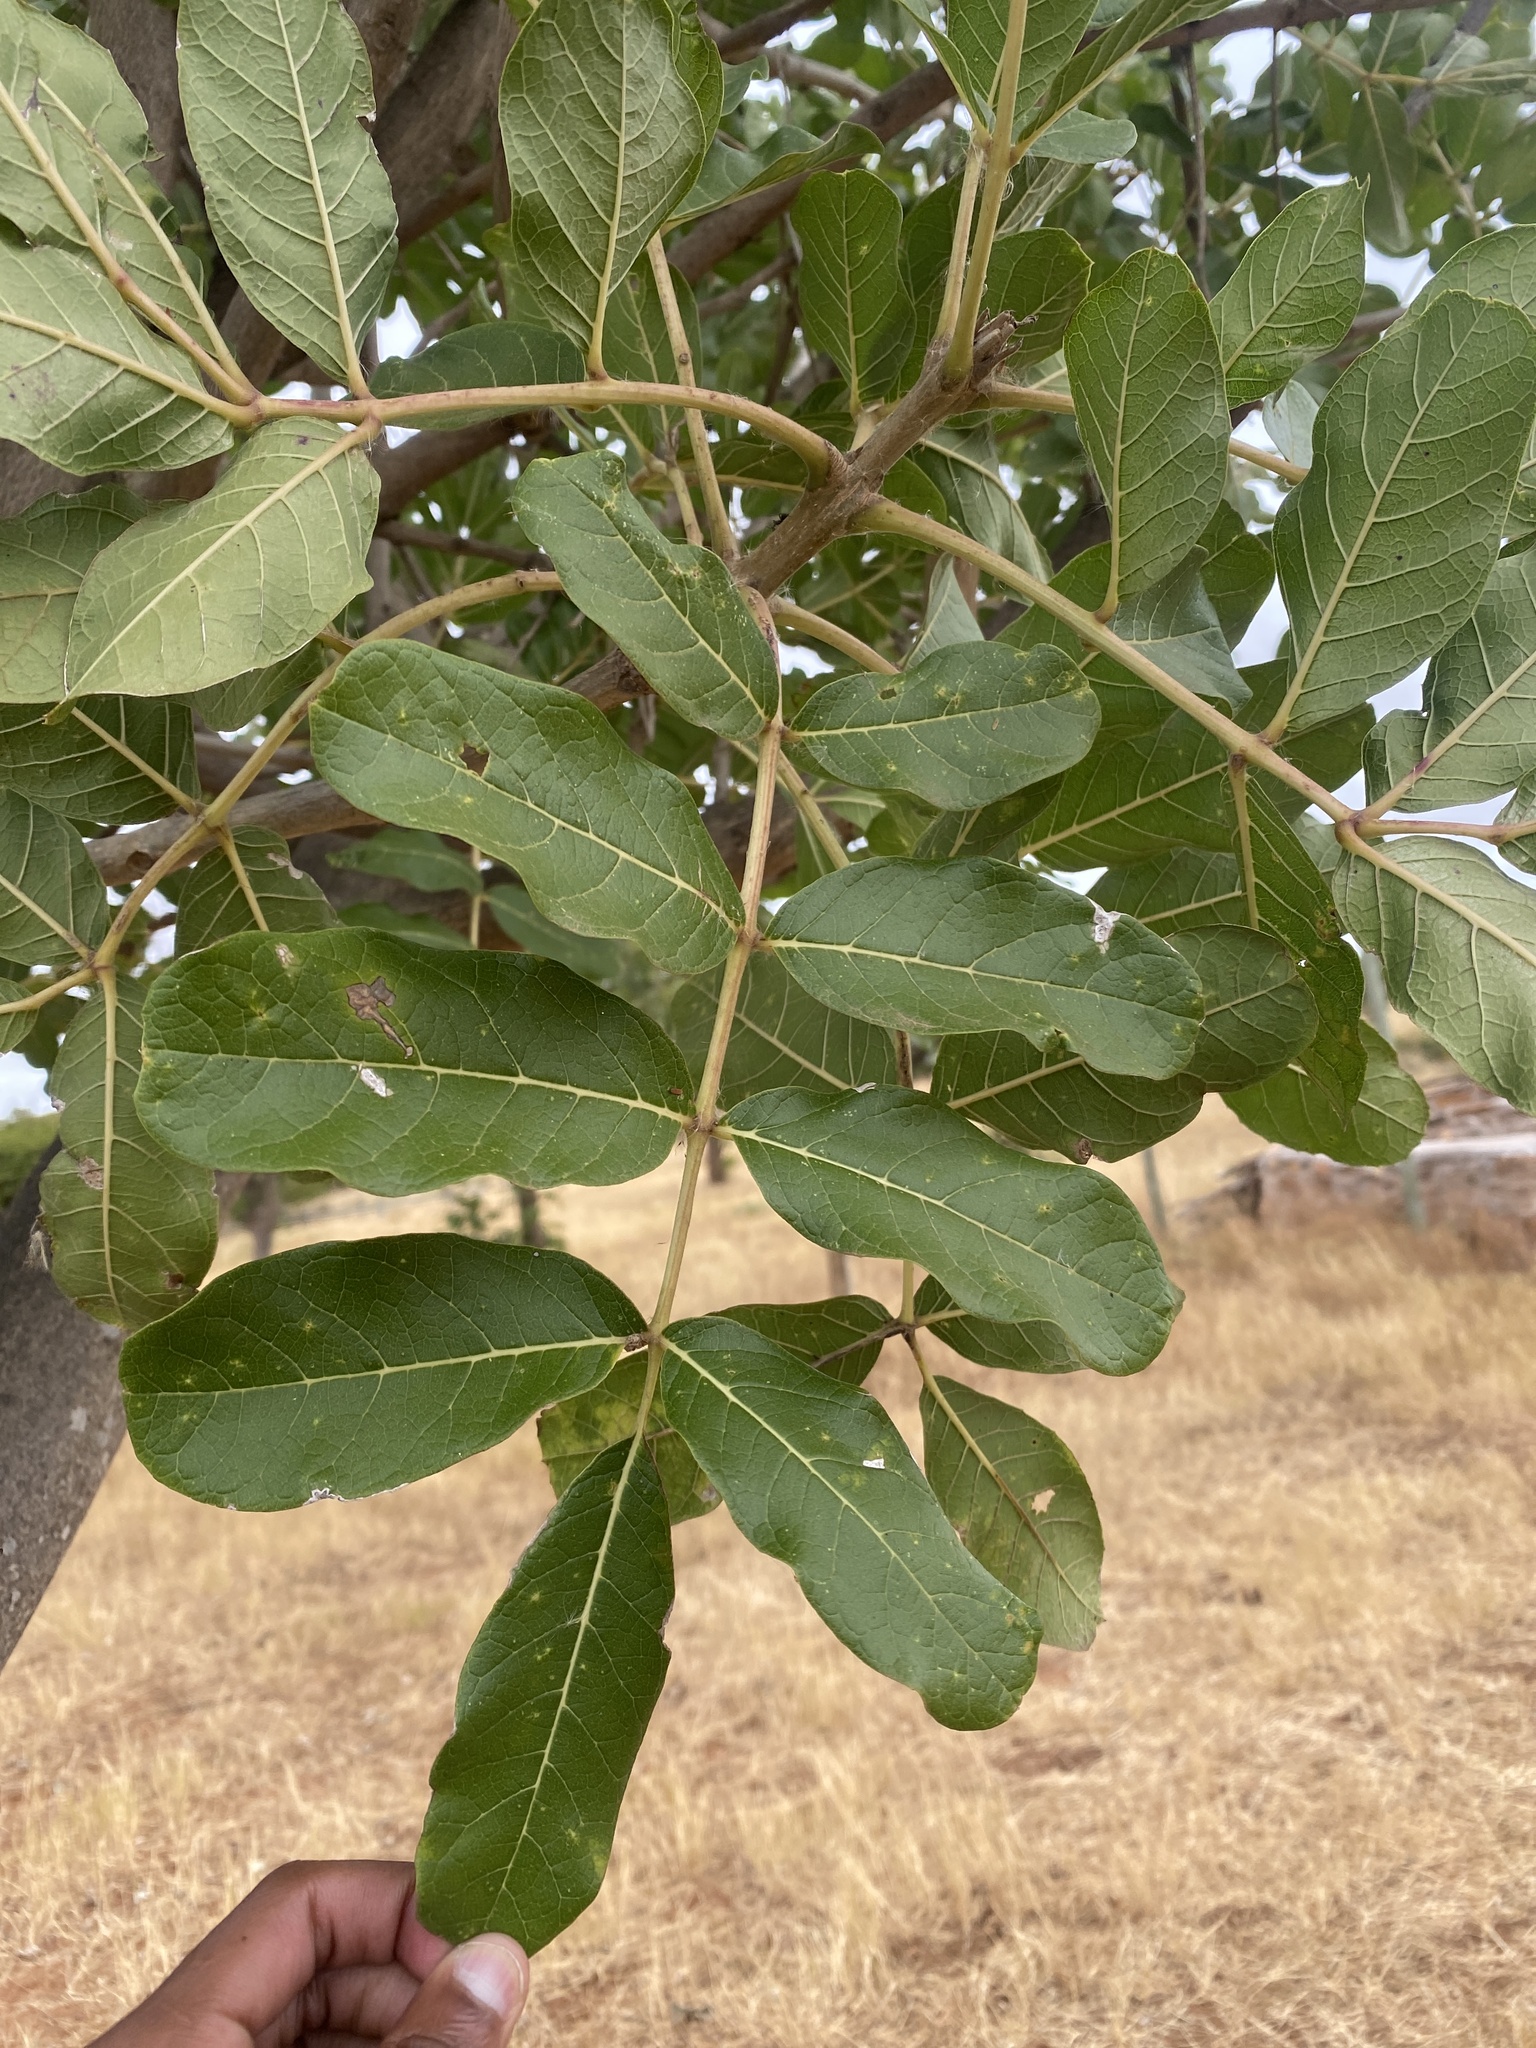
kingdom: Plantae
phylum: Tracheophyta
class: Magnoliopsida
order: Lamiales
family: Bignoniaceae
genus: Kigelia
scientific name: Kigelia africana
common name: Sausage tree
